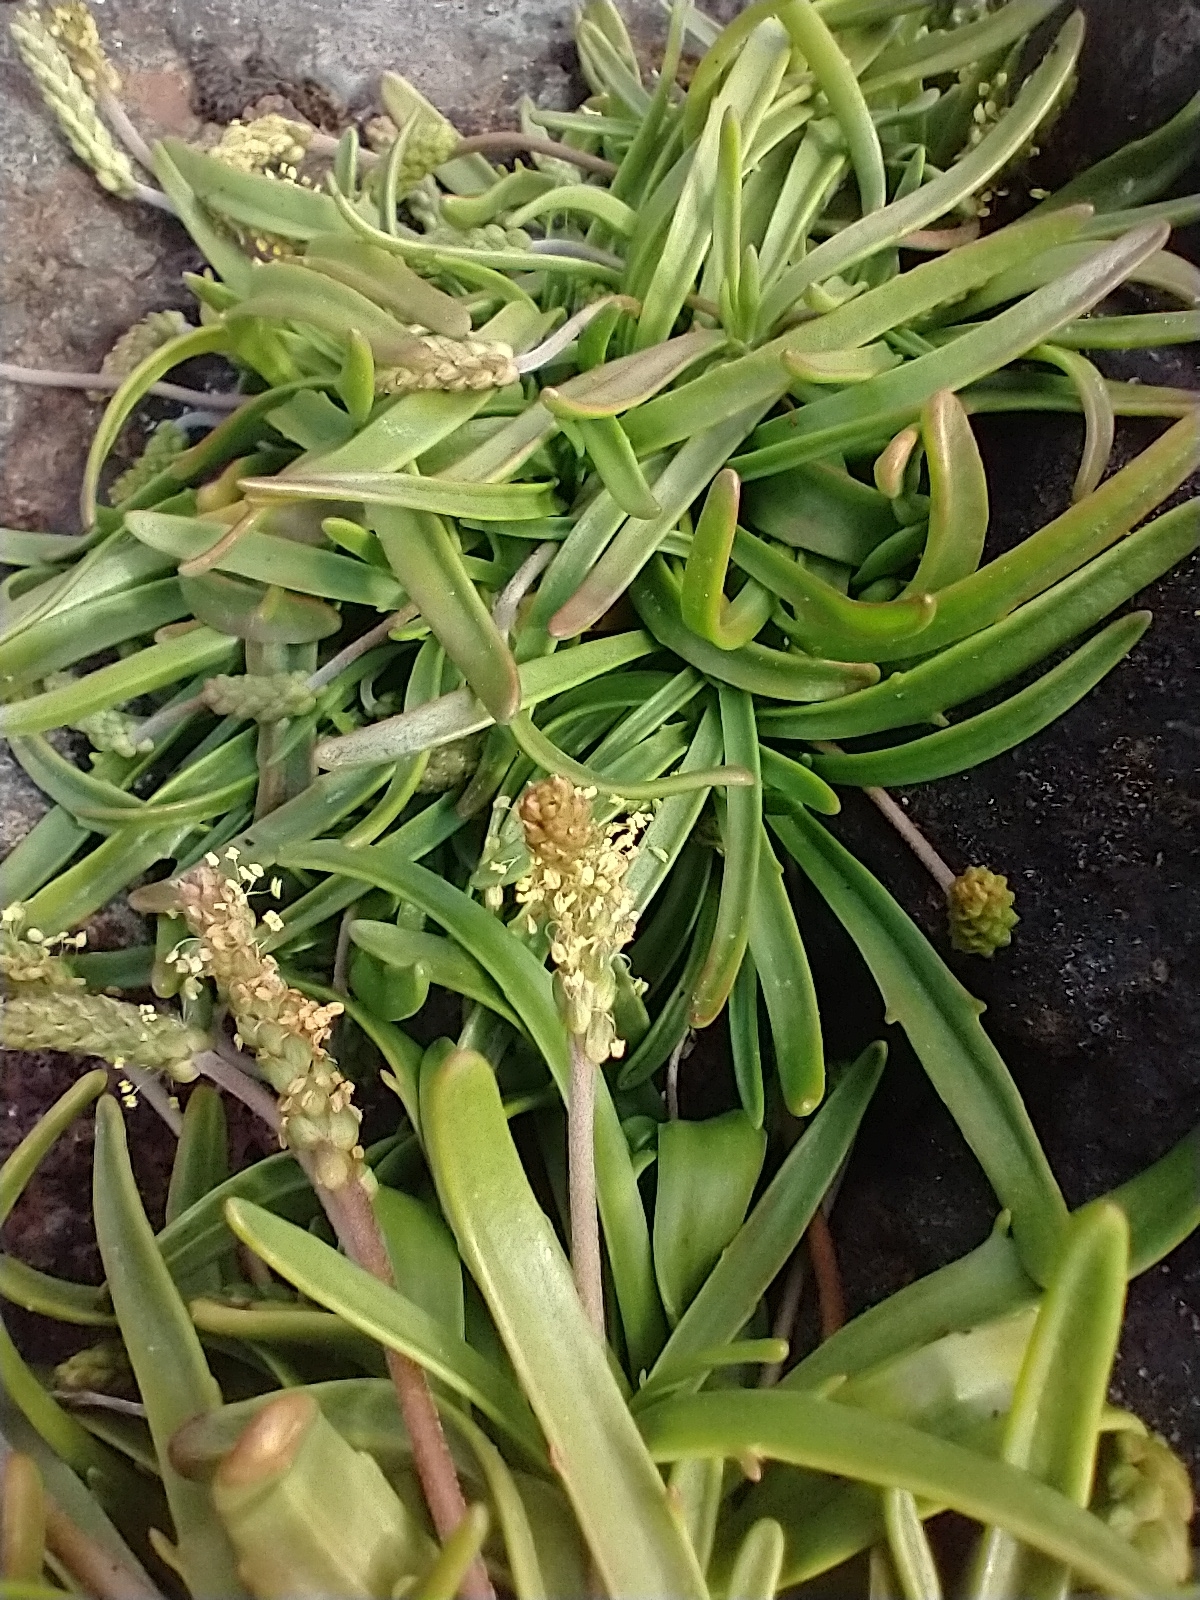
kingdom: Plantae
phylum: Tracheophyta
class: Magnoliopsida
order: Lamiales
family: Plantaginaceae
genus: Plantago
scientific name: Plantago maritima
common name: Sea plantain
